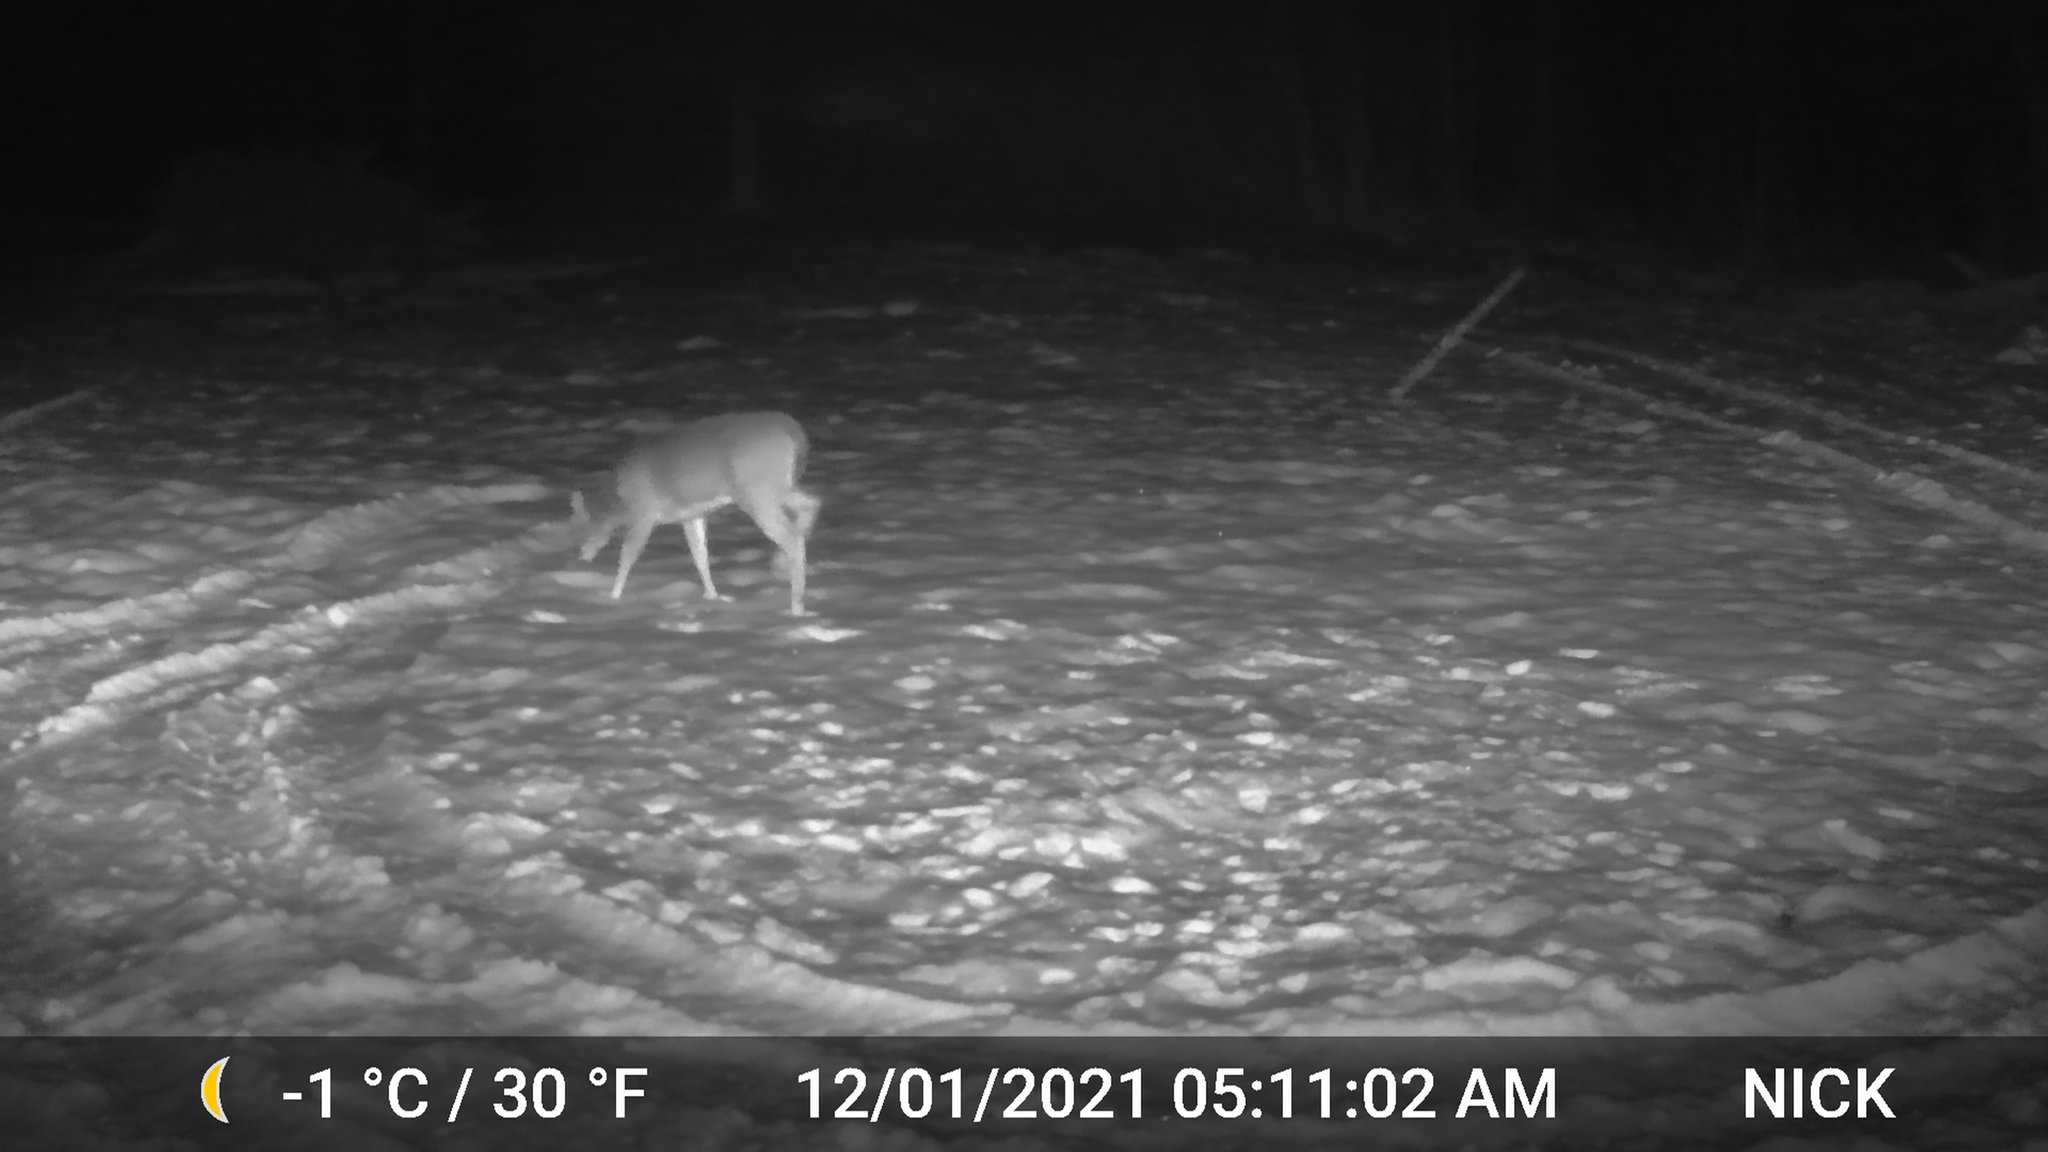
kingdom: Animalia
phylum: Chordata
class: Mammalia
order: Artiodactyla
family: Cervidae
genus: Odocoileus
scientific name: Odocoileus virginianus
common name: White-tailed deer
